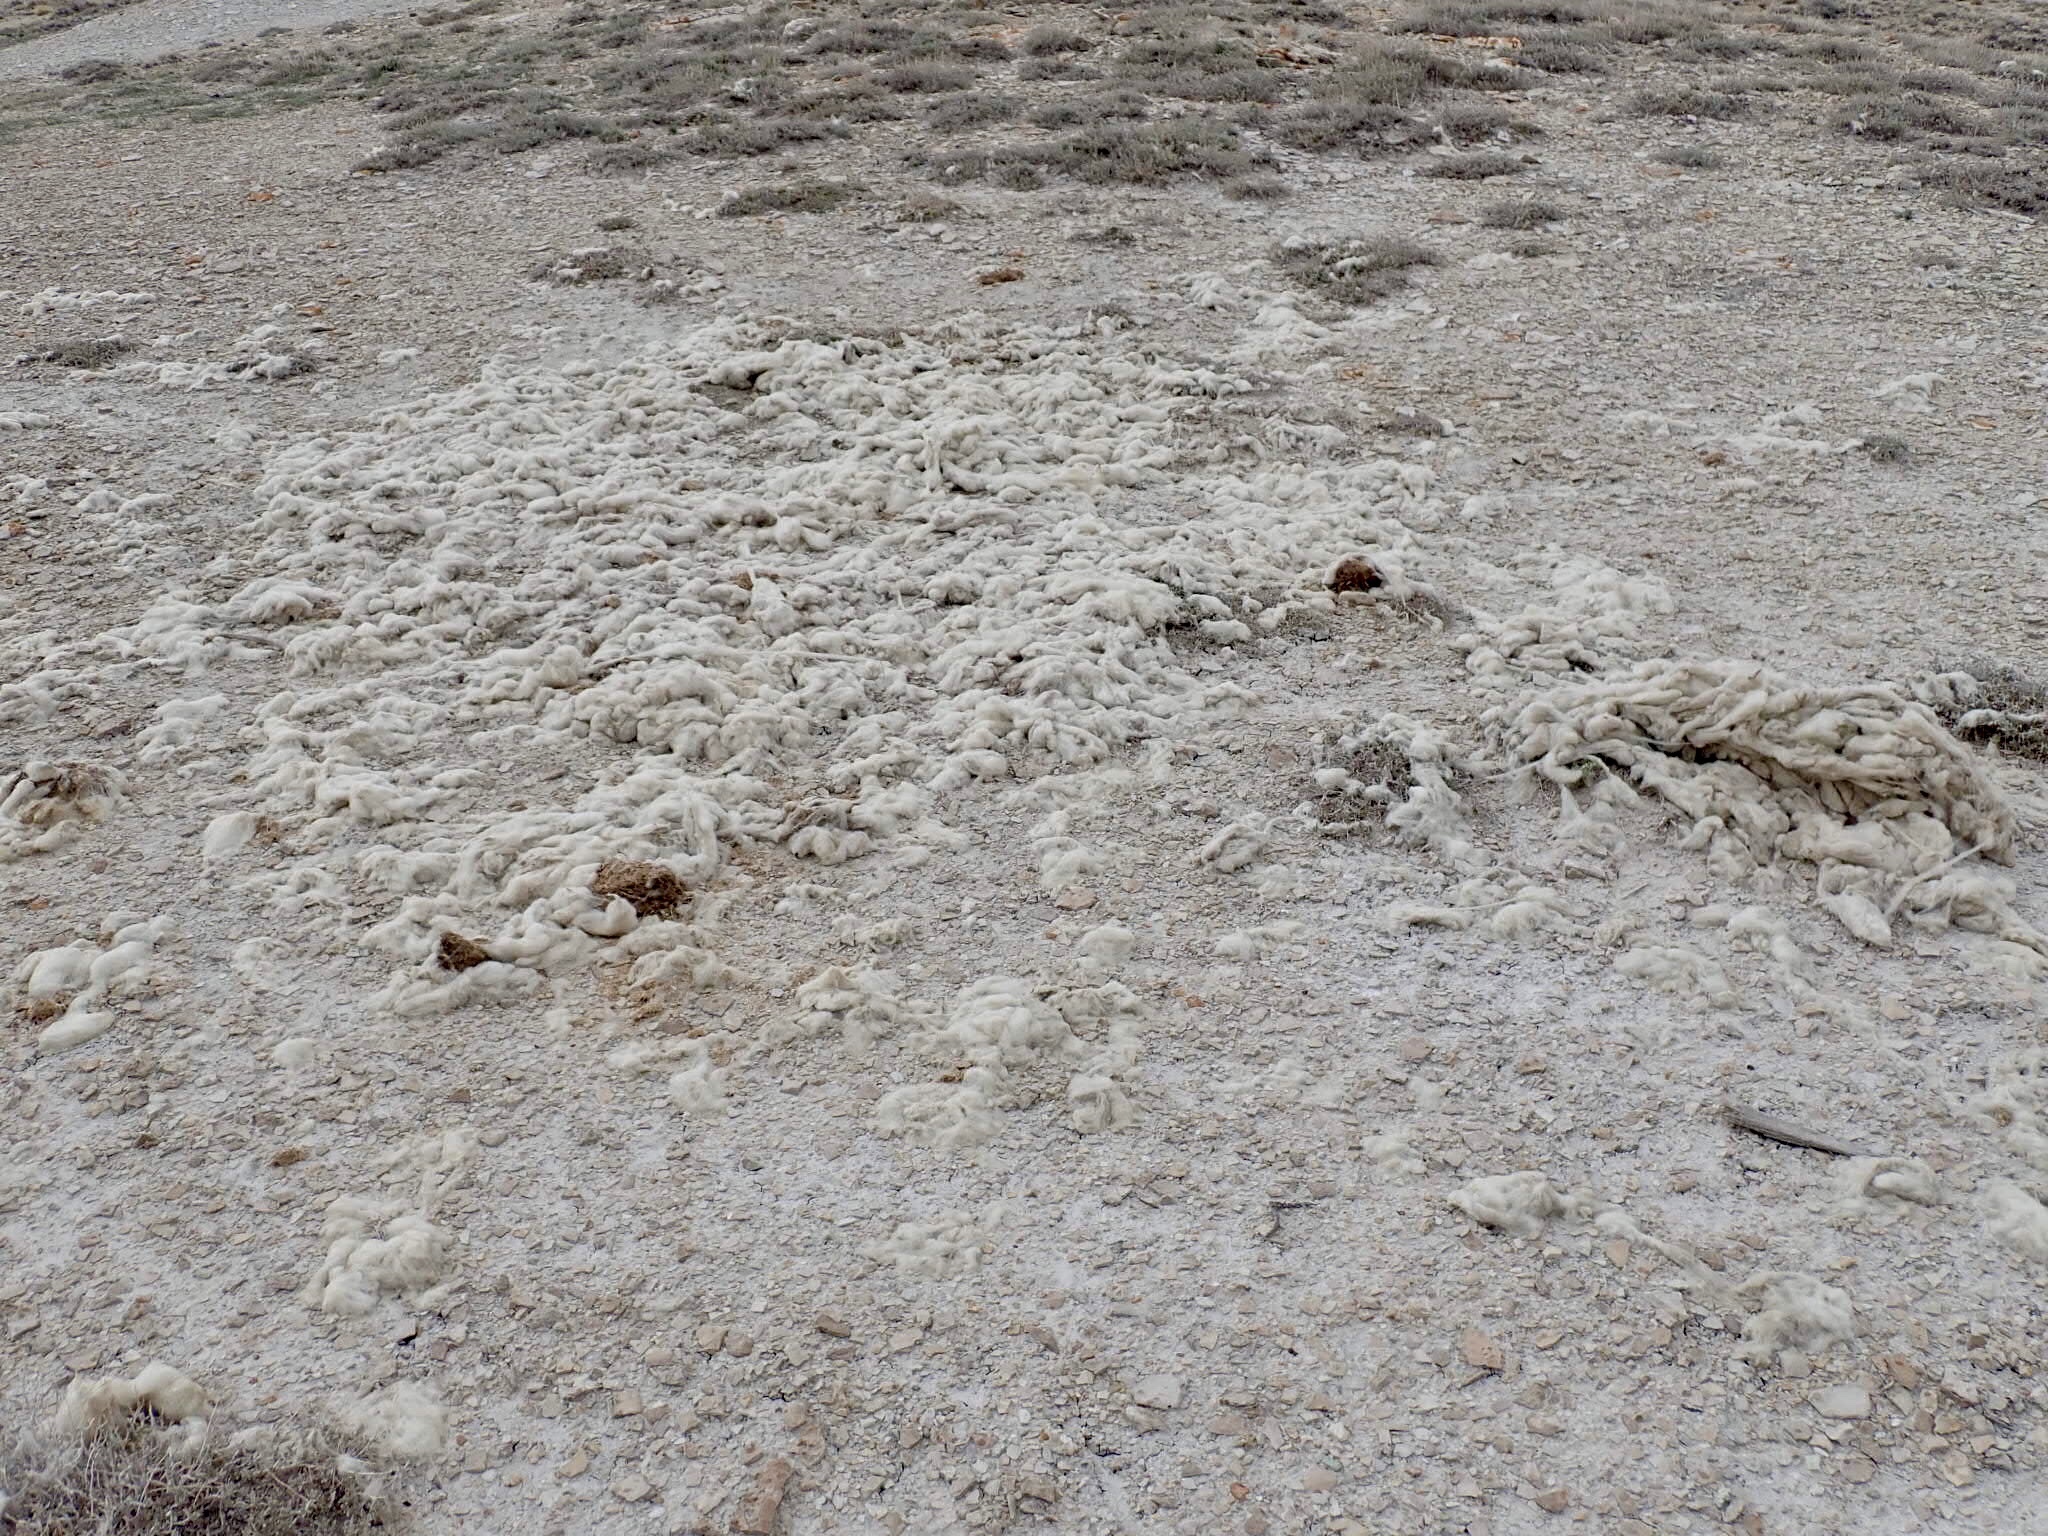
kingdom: Animalia
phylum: Chordata
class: Mammalia
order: Artiodactyla
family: Bovidae
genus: Ovis
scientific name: Ovis aries
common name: Domestic sheep
